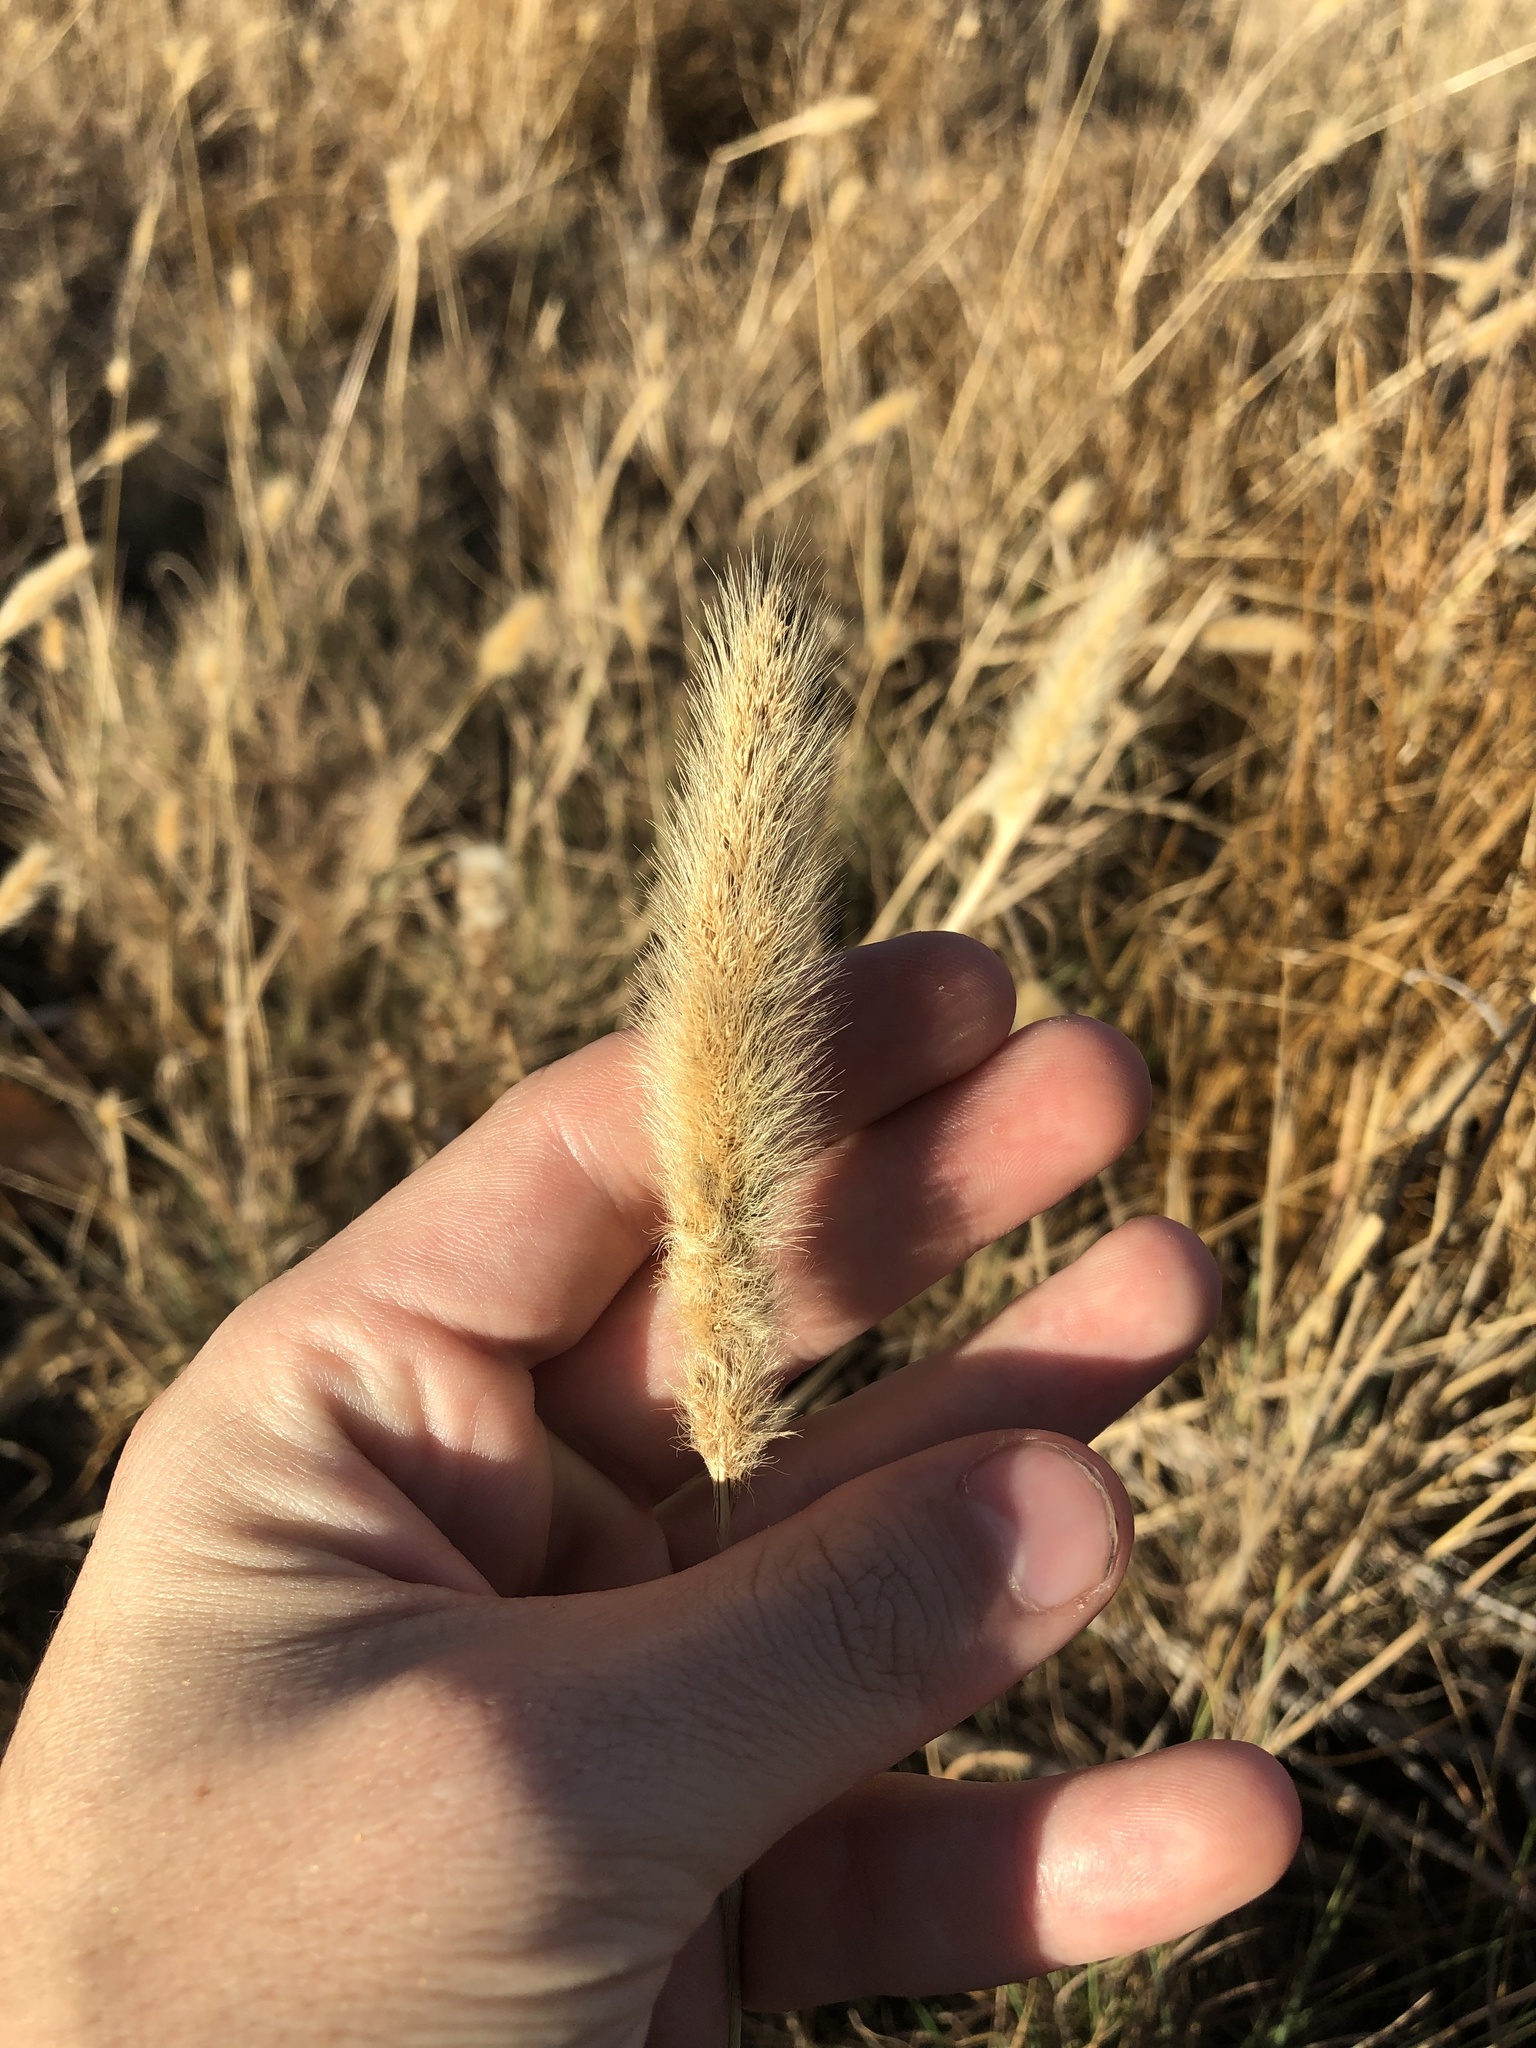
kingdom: Plantae
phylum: Tracheophyta
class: Liliopsida
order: Poales
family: Poaceae
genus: Polypogon
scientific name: Polypogon monspeliensis
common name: Annual rabbitsfoot grass
